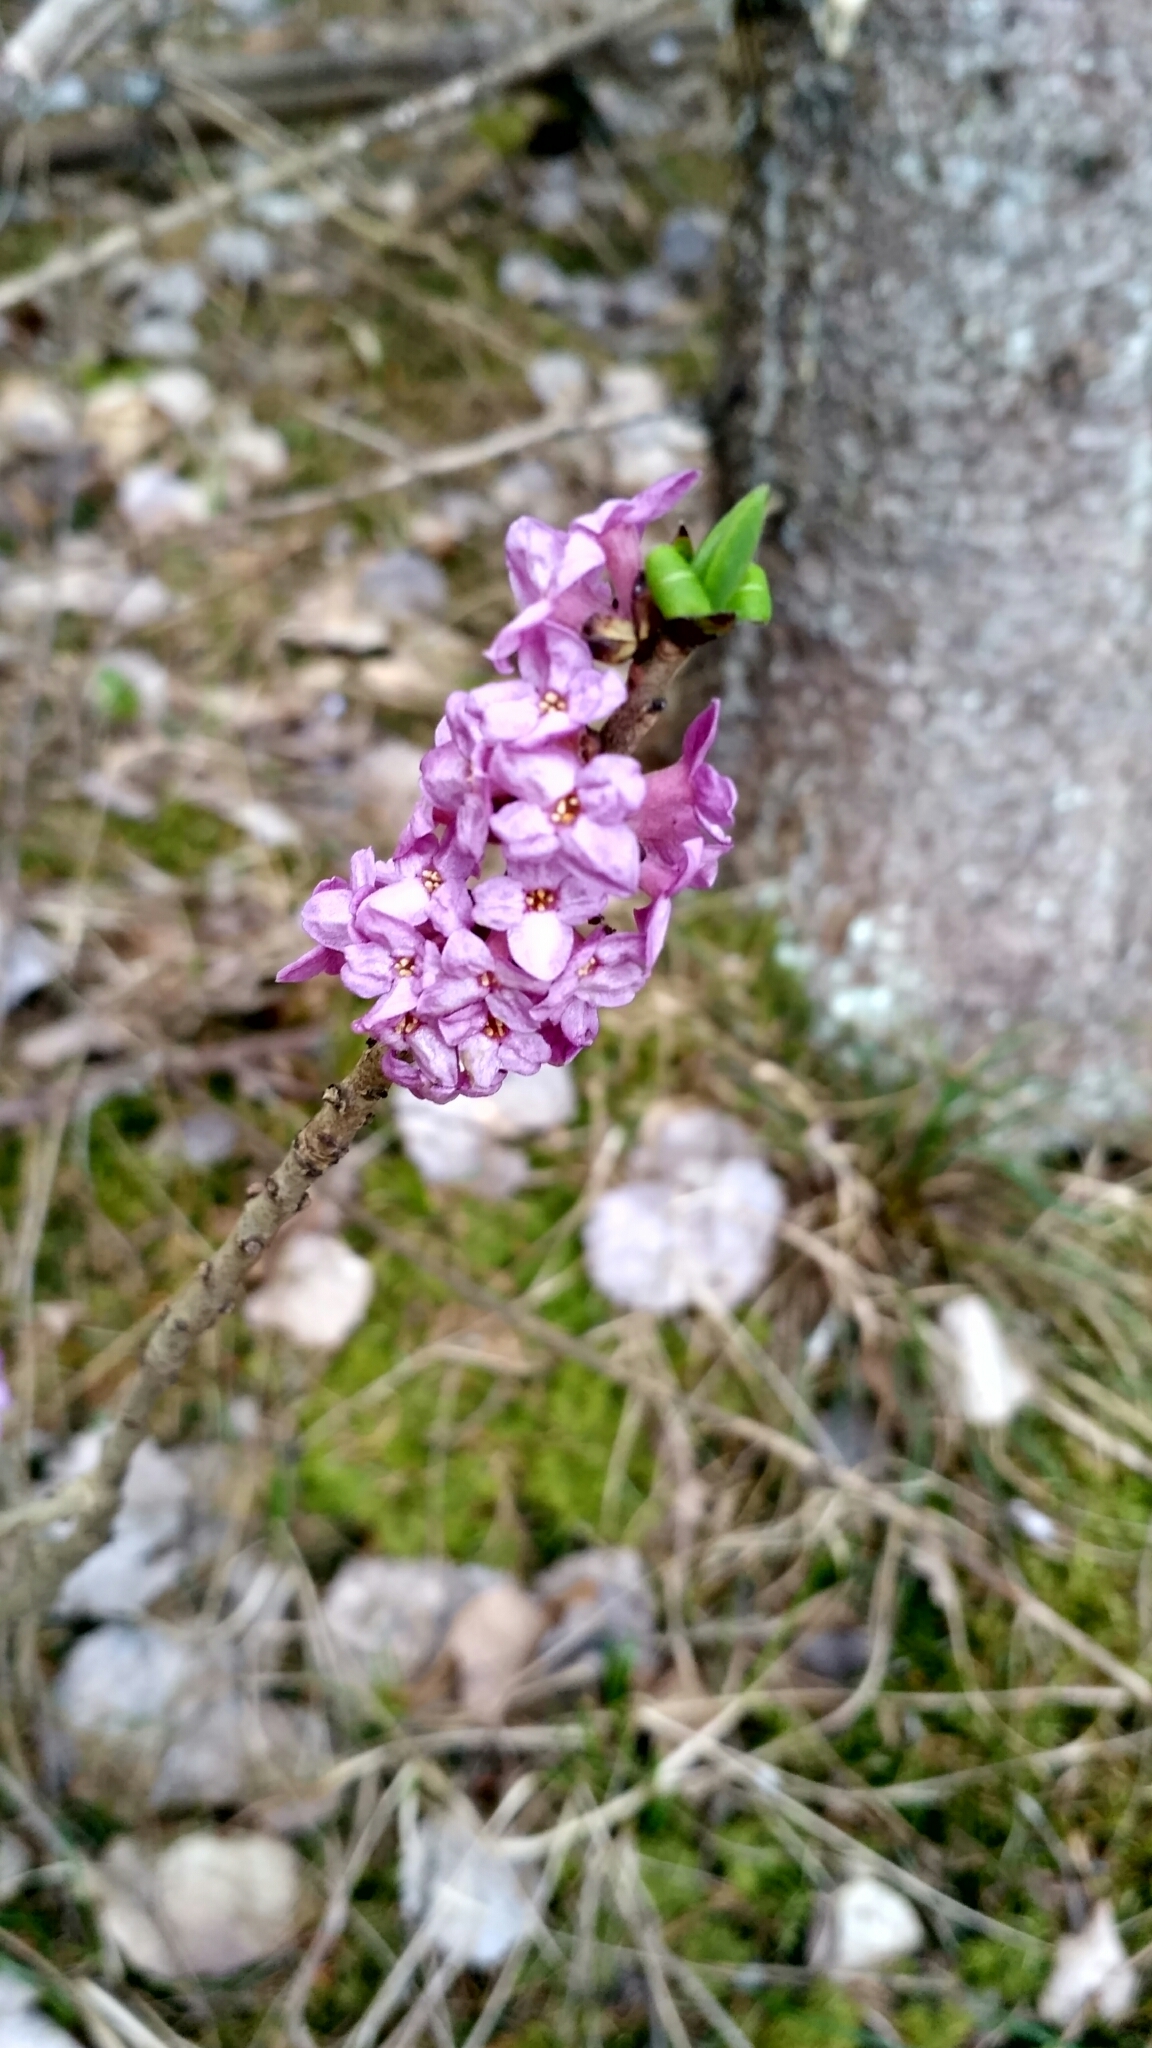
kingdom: Plantae
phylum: Tracheophyta
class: Magnoliopsida
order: Malvales
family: Thymelaeaceae
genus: Daphne
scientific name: Daphne mezereum
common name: Mezereon
